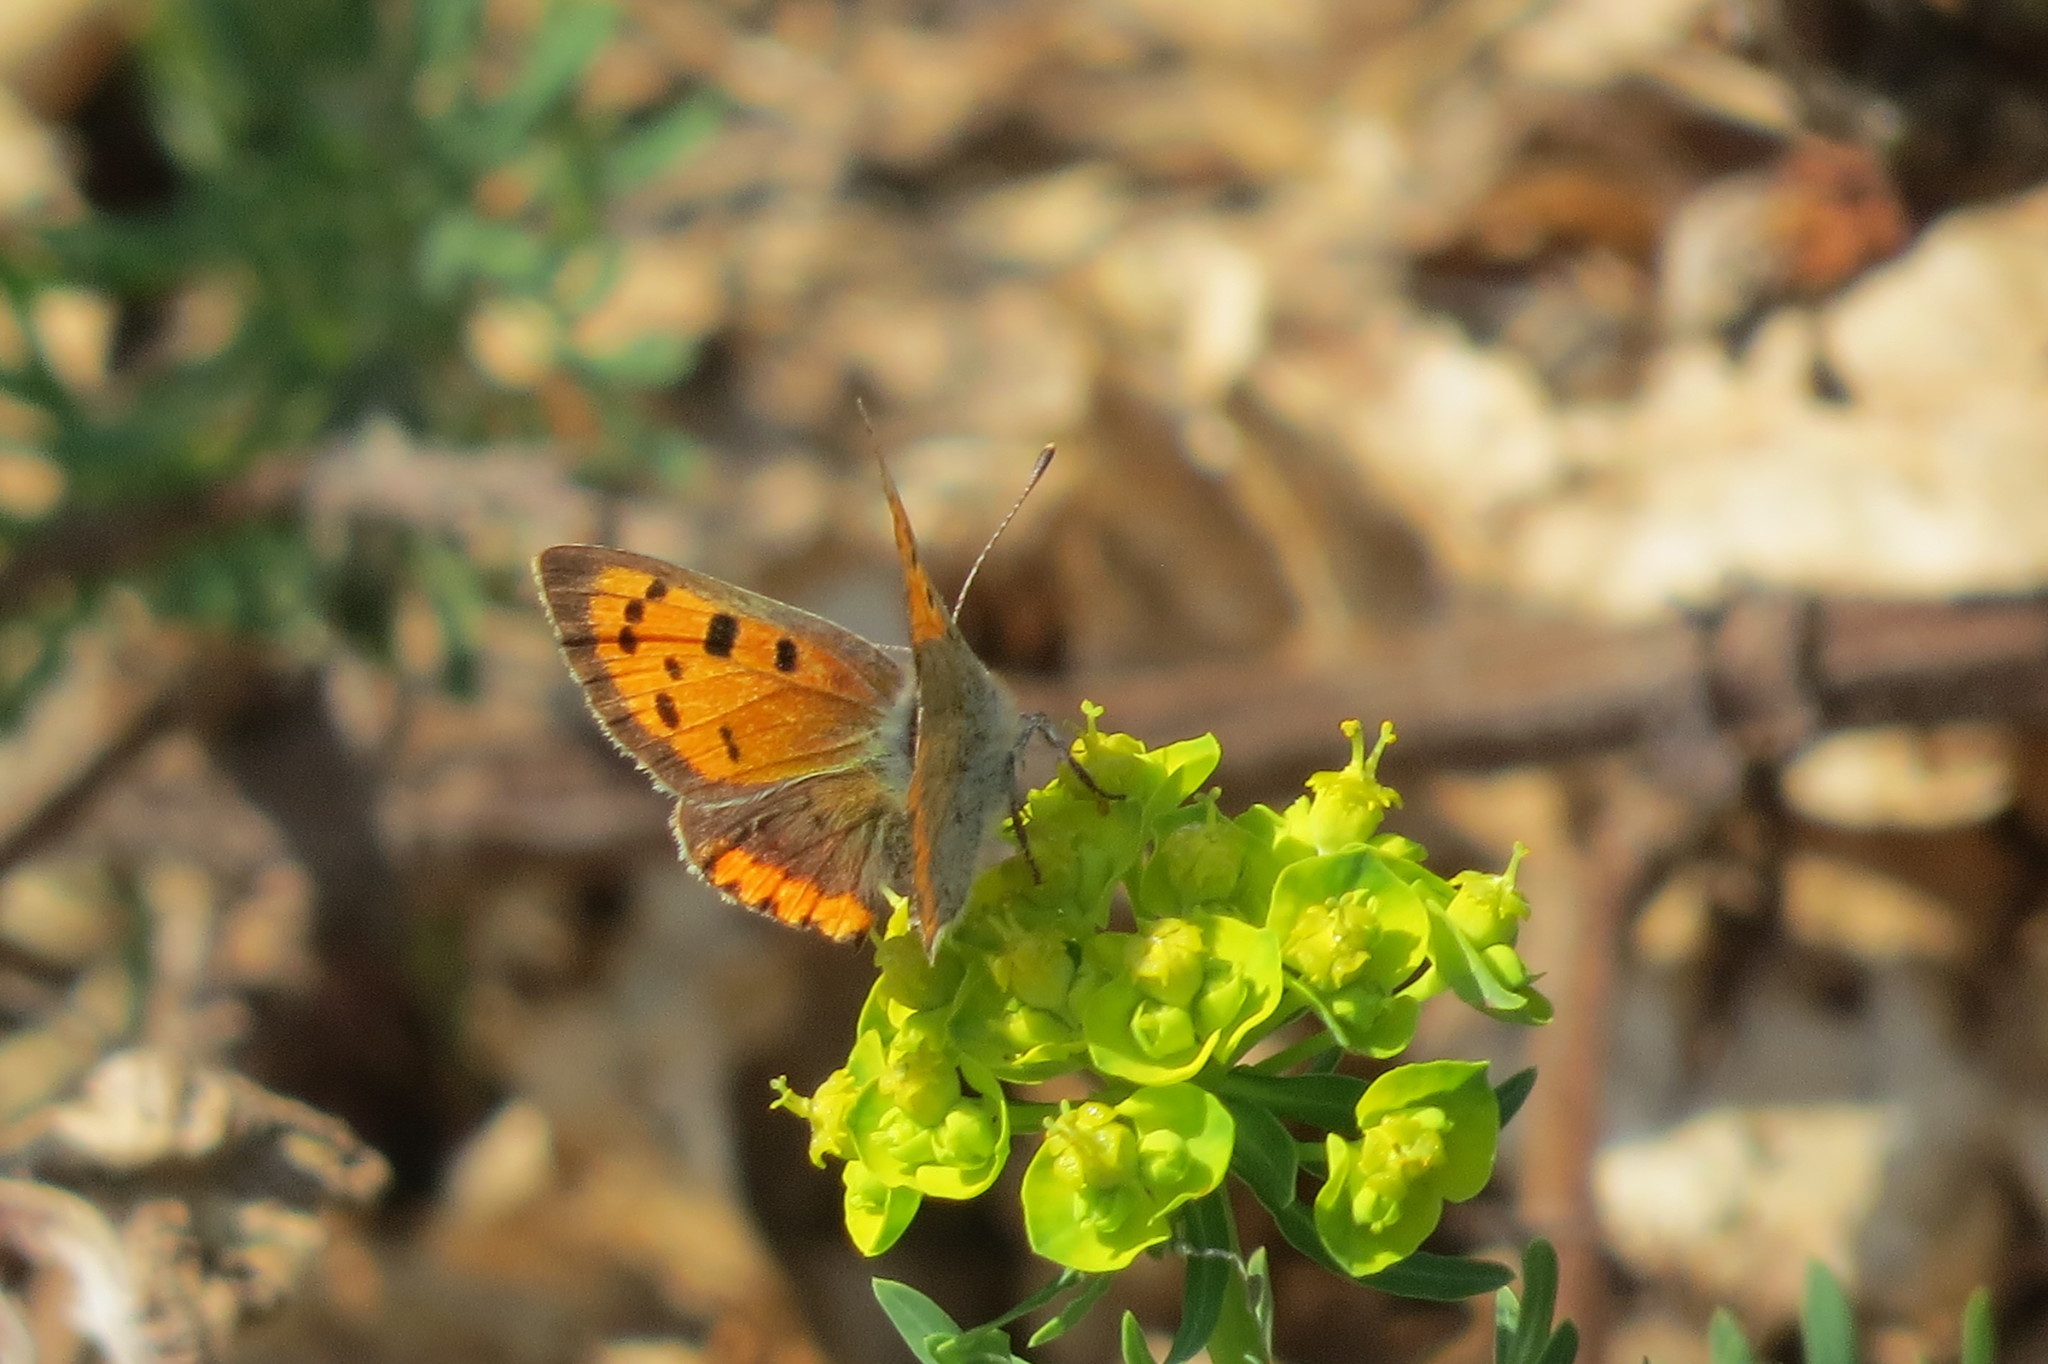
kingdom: Animalia
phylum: Arthropoda
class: Insecta
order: Lepidoptera
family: Lycaenidae
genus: Lycaena
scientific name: Lycaena phlaeas
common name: Small copper
